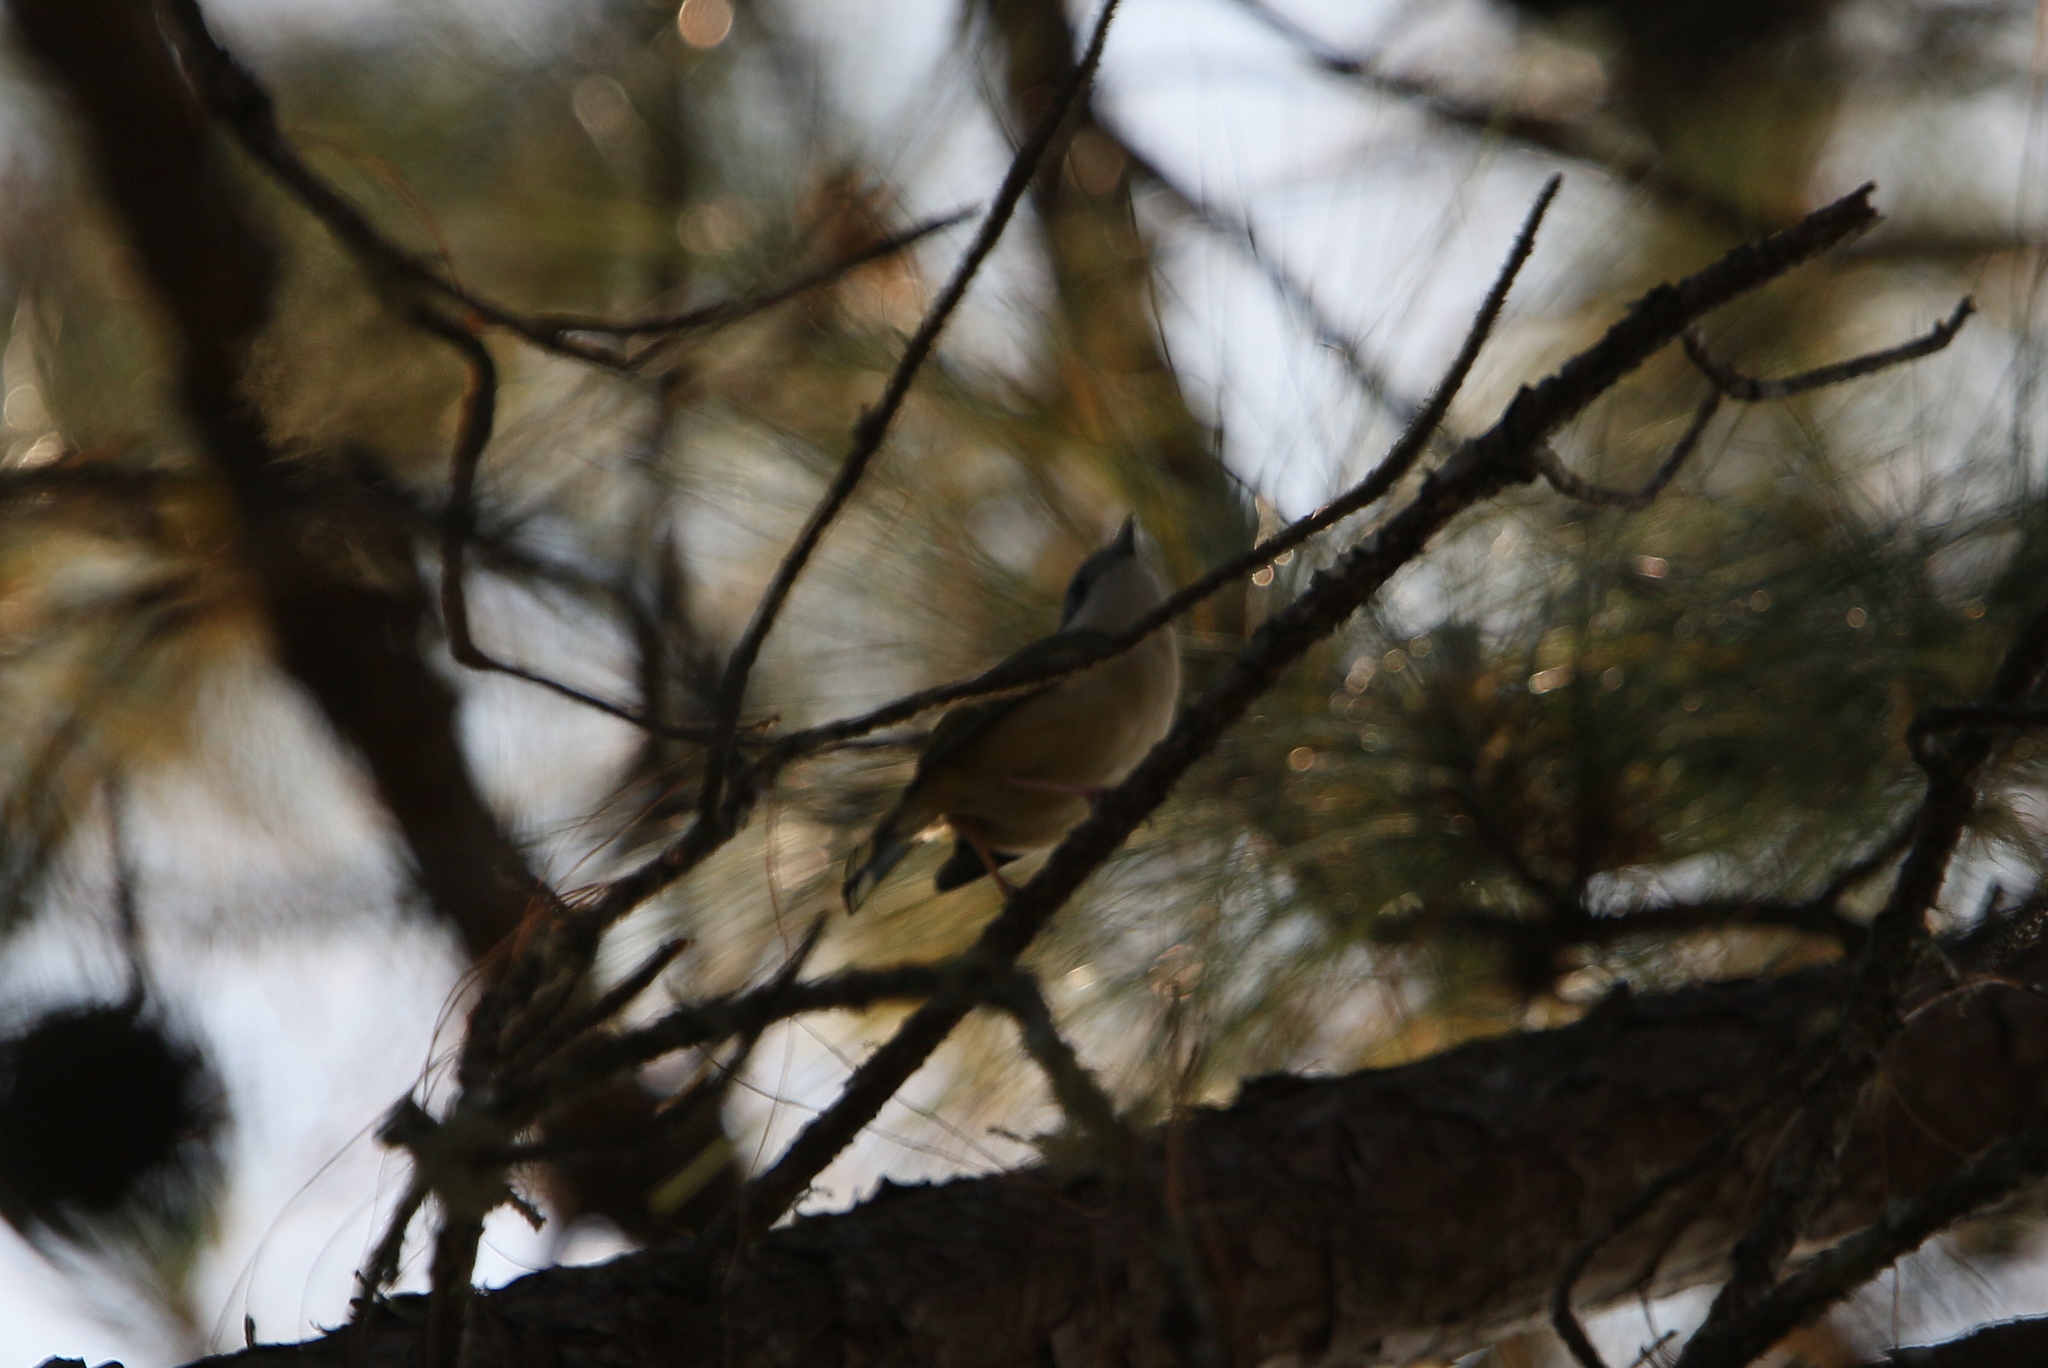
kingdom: Animalia
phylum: Chordata
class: Aves
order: Passeriformes
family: Vireonidae
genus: Pteruthius
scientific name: Pteruthius aeralatus
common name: Blyth's shrike-babbler
